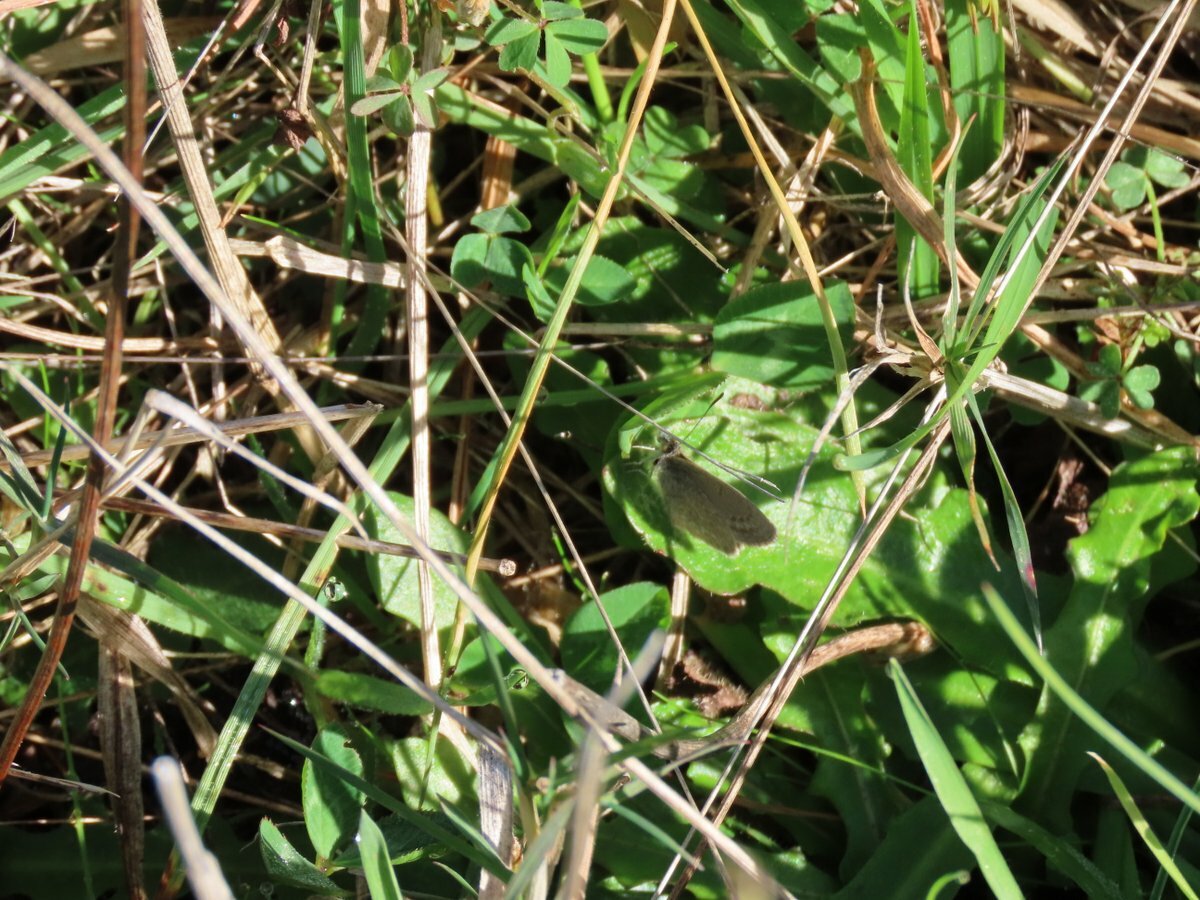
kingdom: Animalia
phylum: Arthropoda
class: Insecta
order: Lepidoptera
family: Lycaenidae
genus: Zizina
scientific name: Zizina otis
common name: Lesser grass blue
